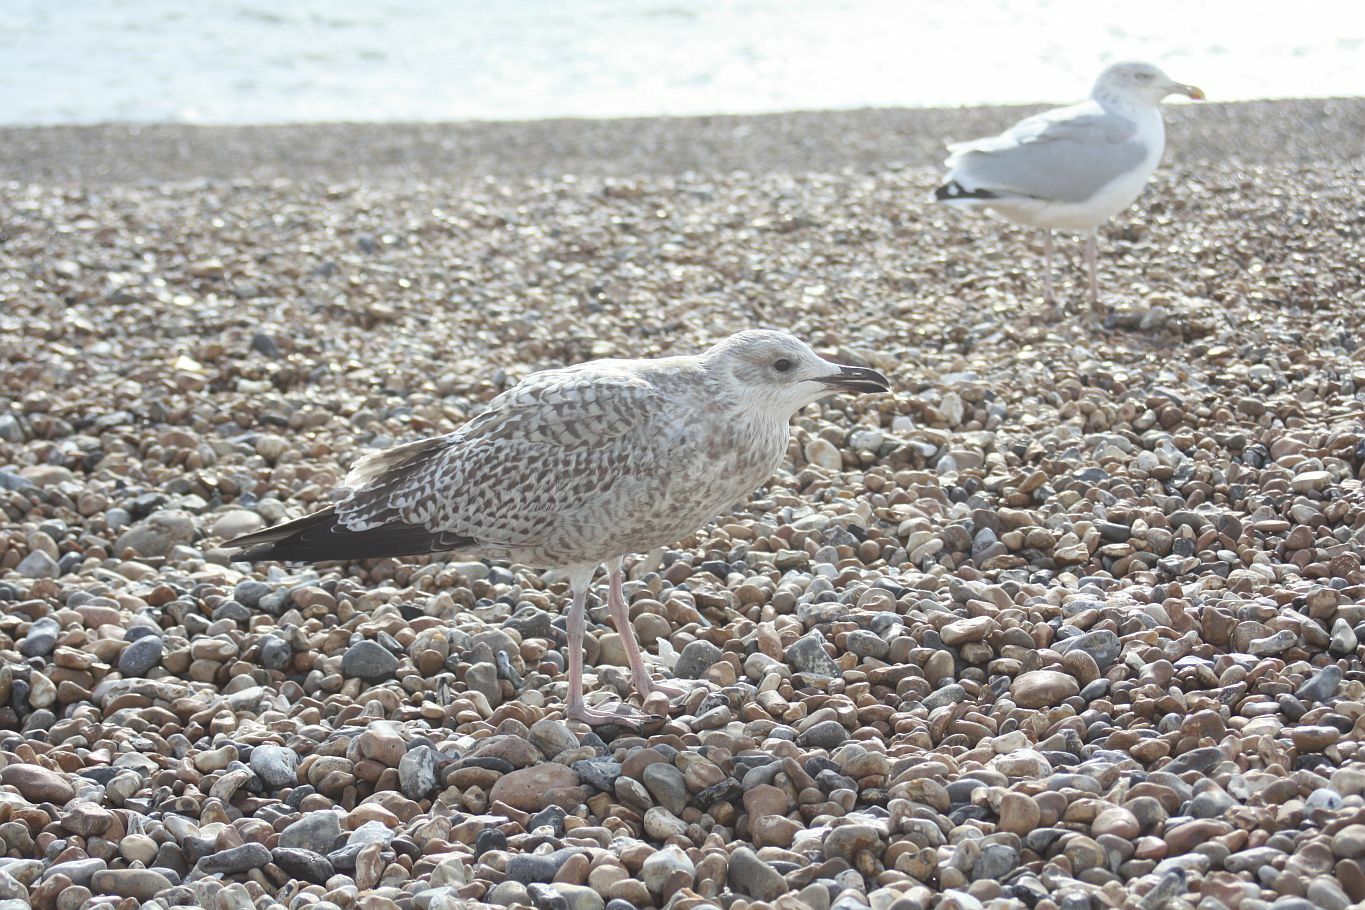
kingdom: Animalia
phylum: Chordata
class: Aves
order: Charadriiformes
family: Laridae
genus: Larus
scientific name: Larus argentatus
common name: Herring gull
